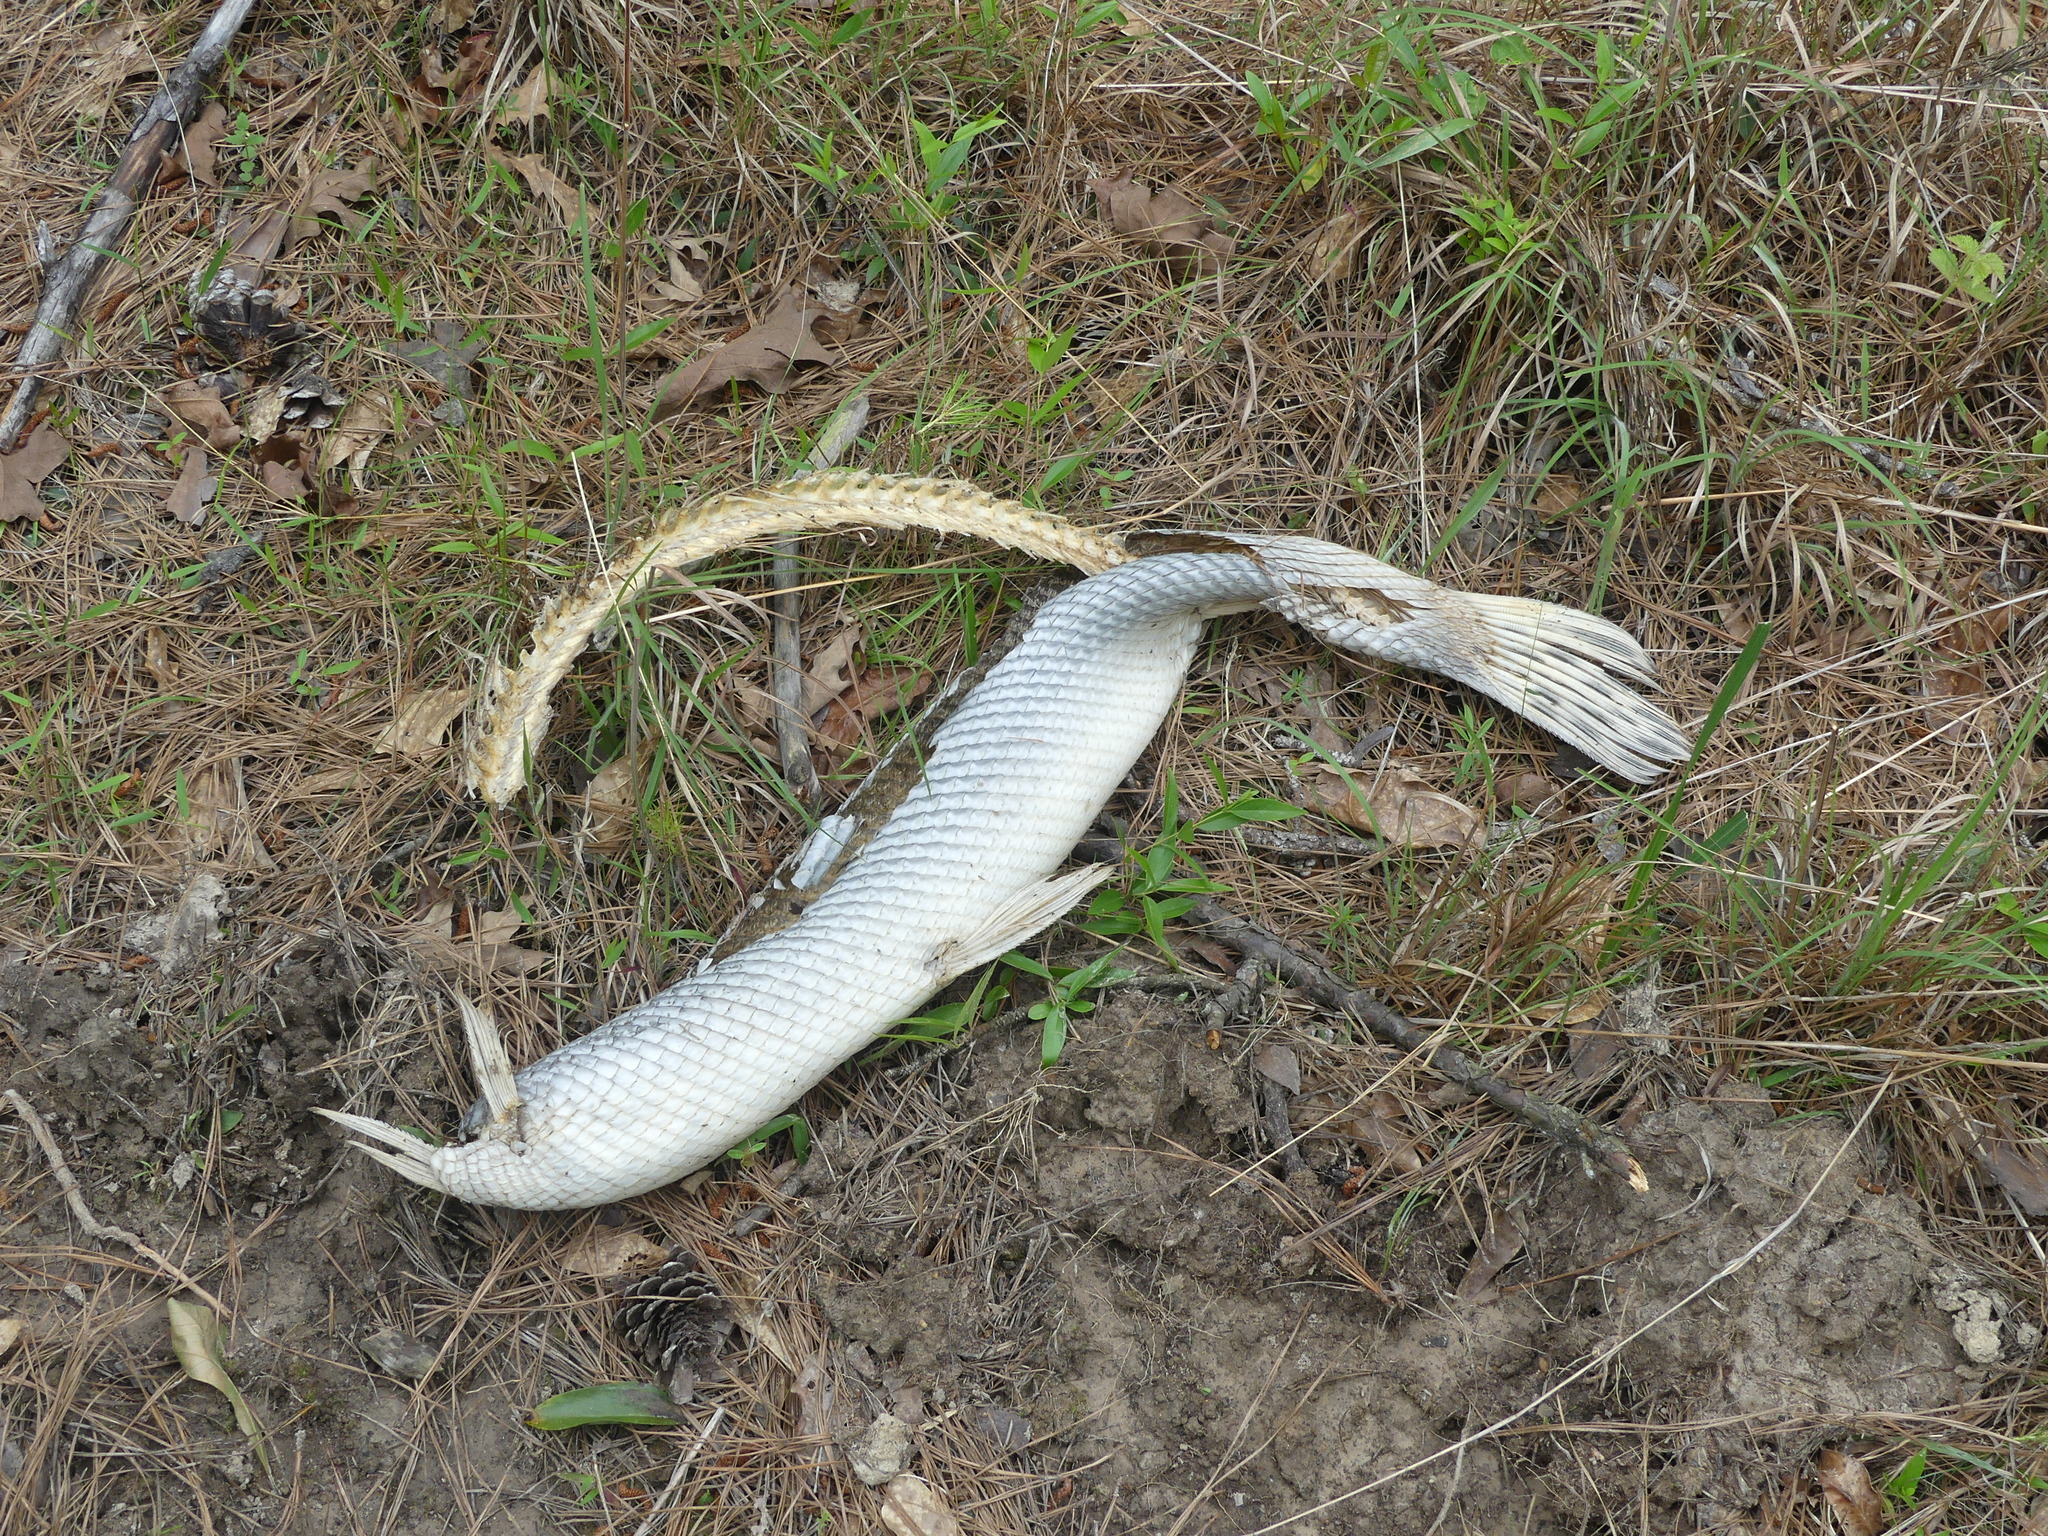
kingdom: Animalia
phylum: Chordata
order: Lepisosteiformes
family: Lepisosteidae
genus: Lepisosteus
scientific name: Lepisosteus osseus
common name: Longnose gar
